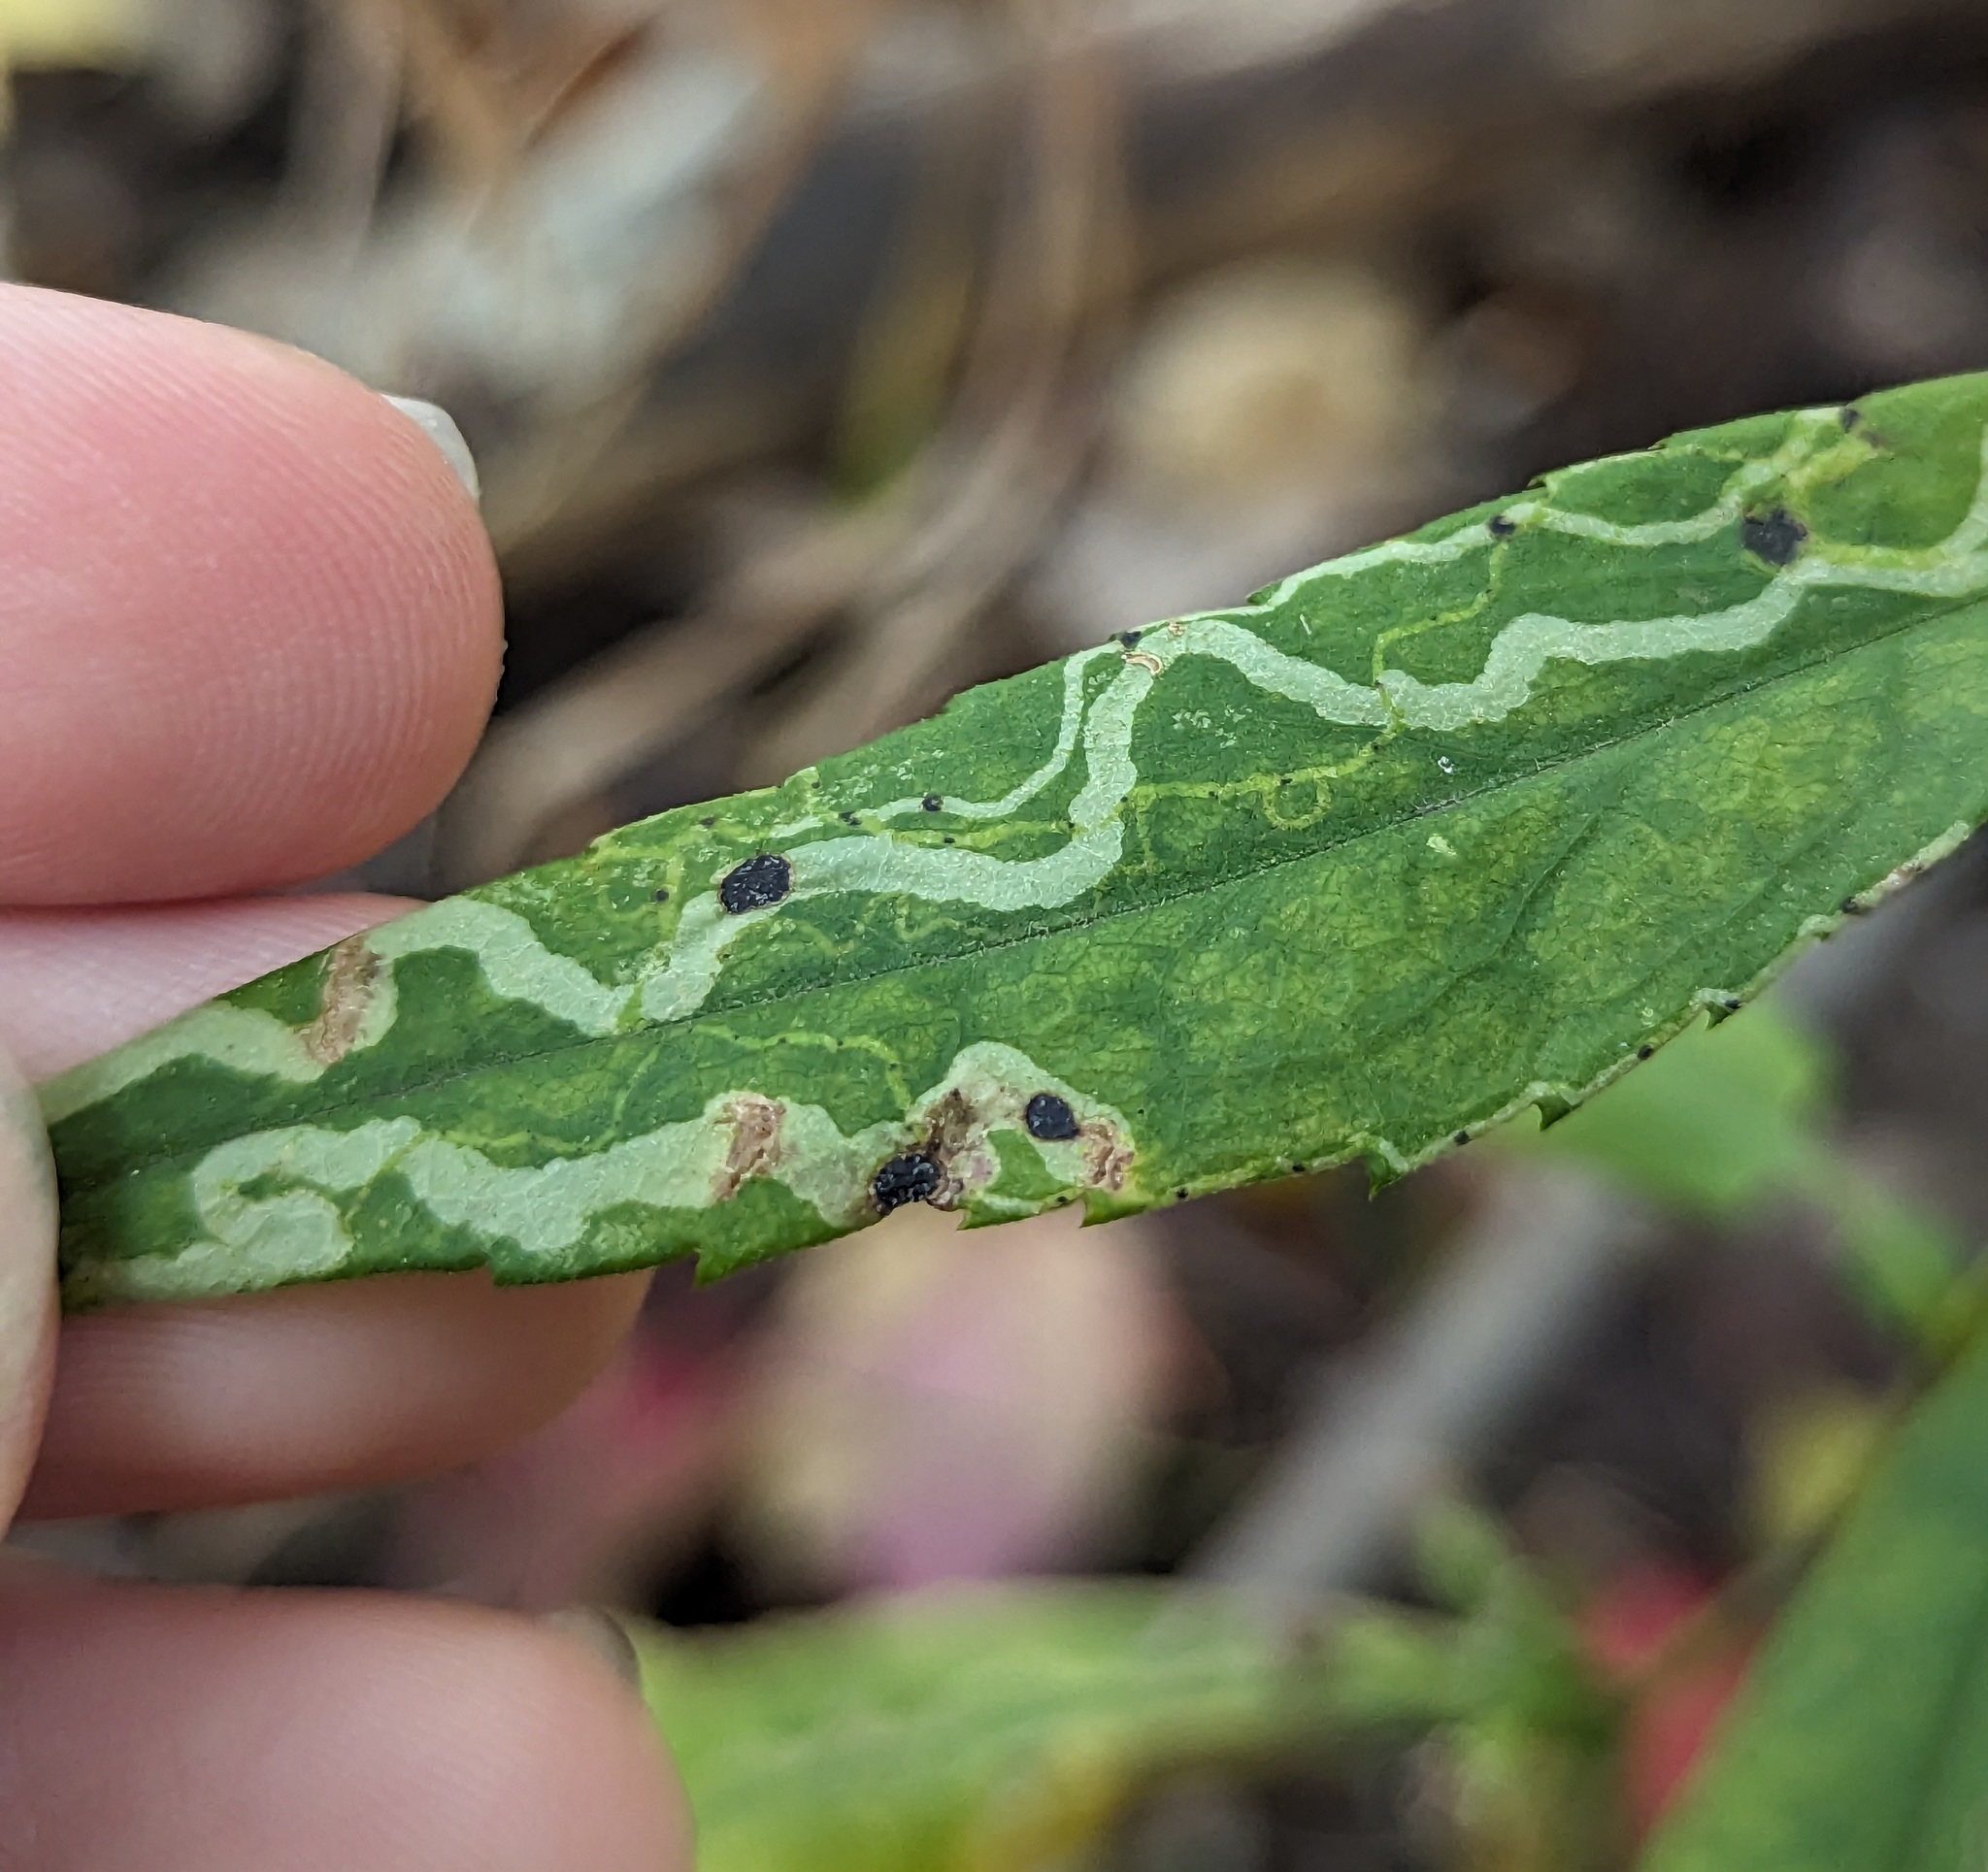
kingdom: Animalia
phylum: Arthropoda
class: Insecta
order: Diptera
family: Agromyzidae
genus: Ophiomyia
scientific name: Ophiomyia parda
